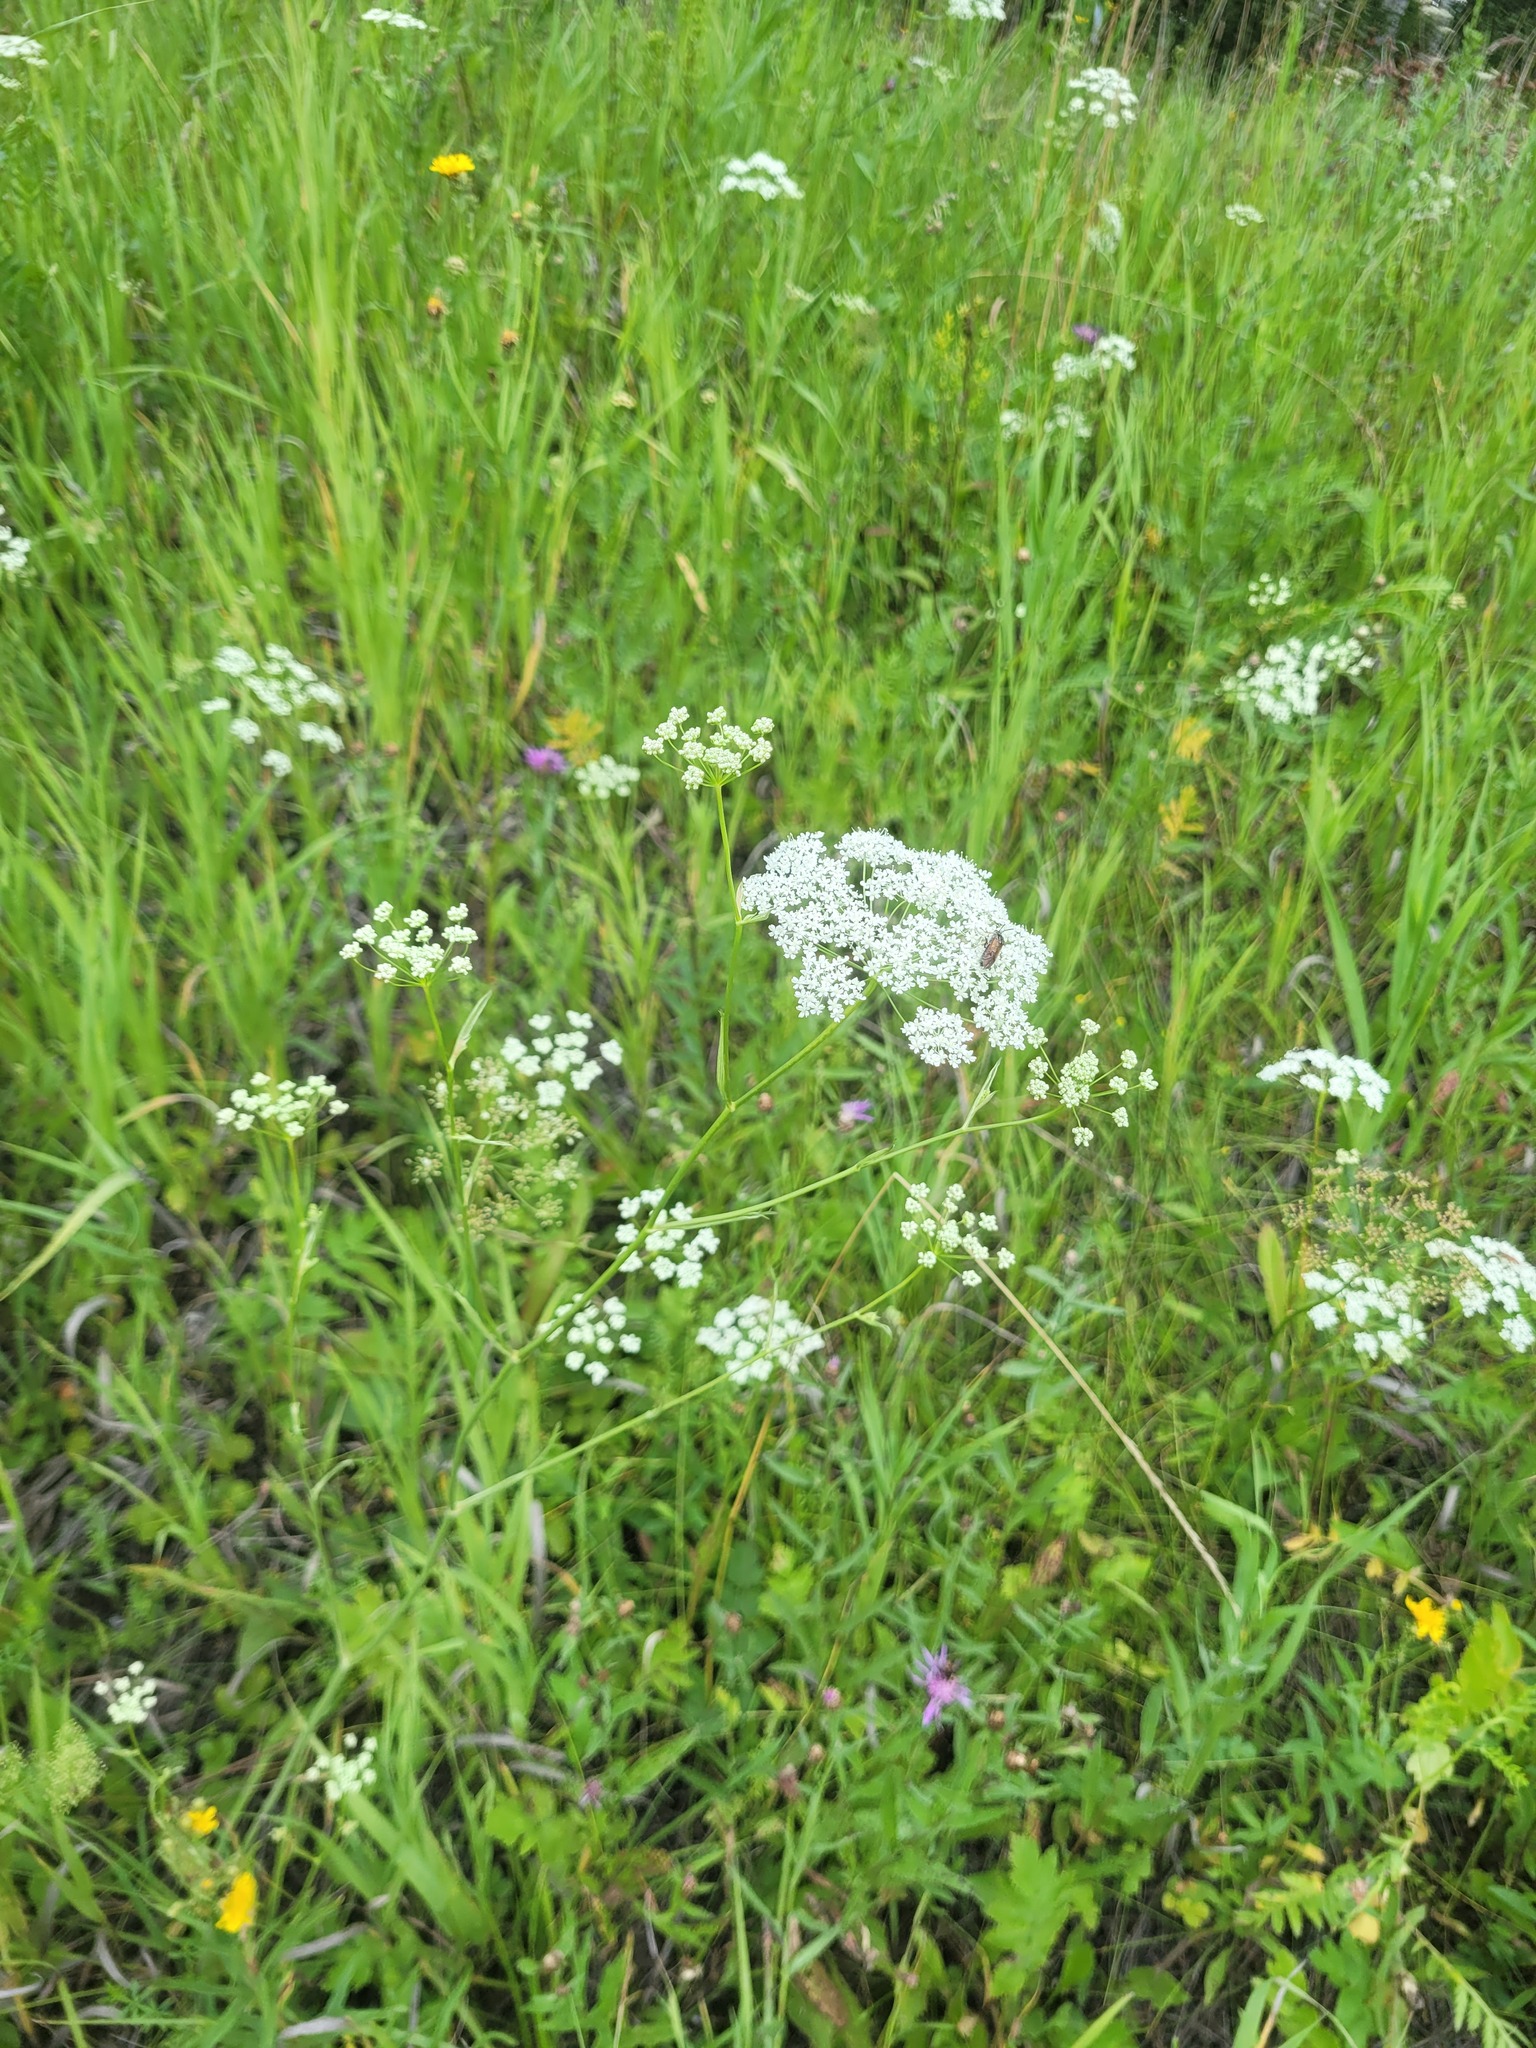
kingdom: Plantae
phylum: Tracheophyta
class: Magnoliopsida
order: Apiales
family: Apiaceae
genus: Pimpinella
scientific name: Pimpinella saxifraga
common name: Burnet-saxifrage
